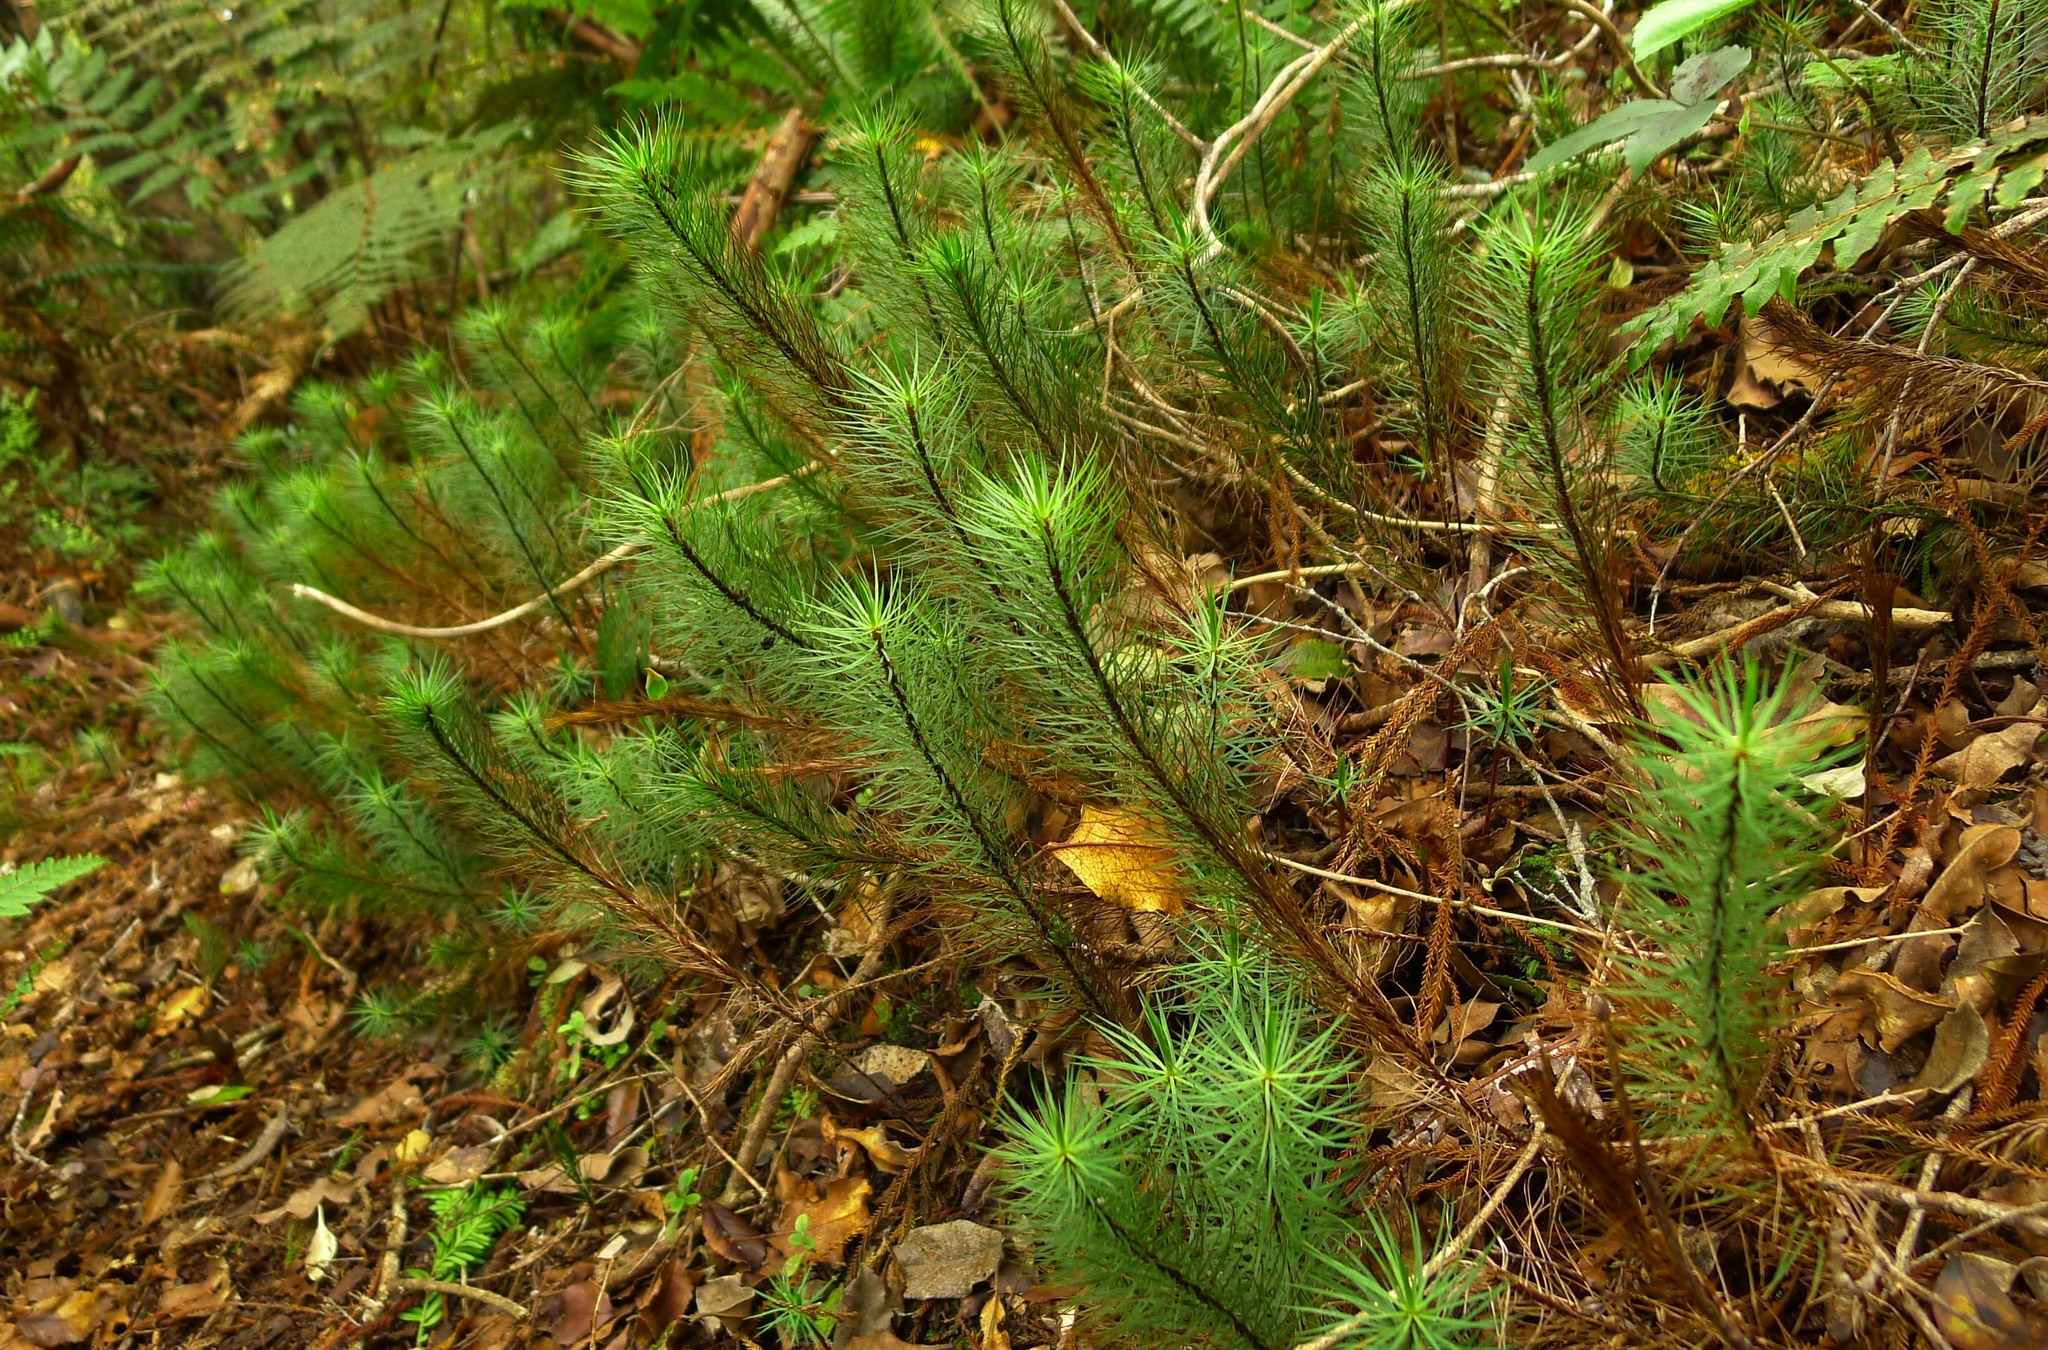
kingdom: Plantae
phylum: Bryophyta
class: Polytrichopsida
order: Polytrichales
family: Polytrichaceae
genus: Dawsonia
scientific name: Dawsonia superba
